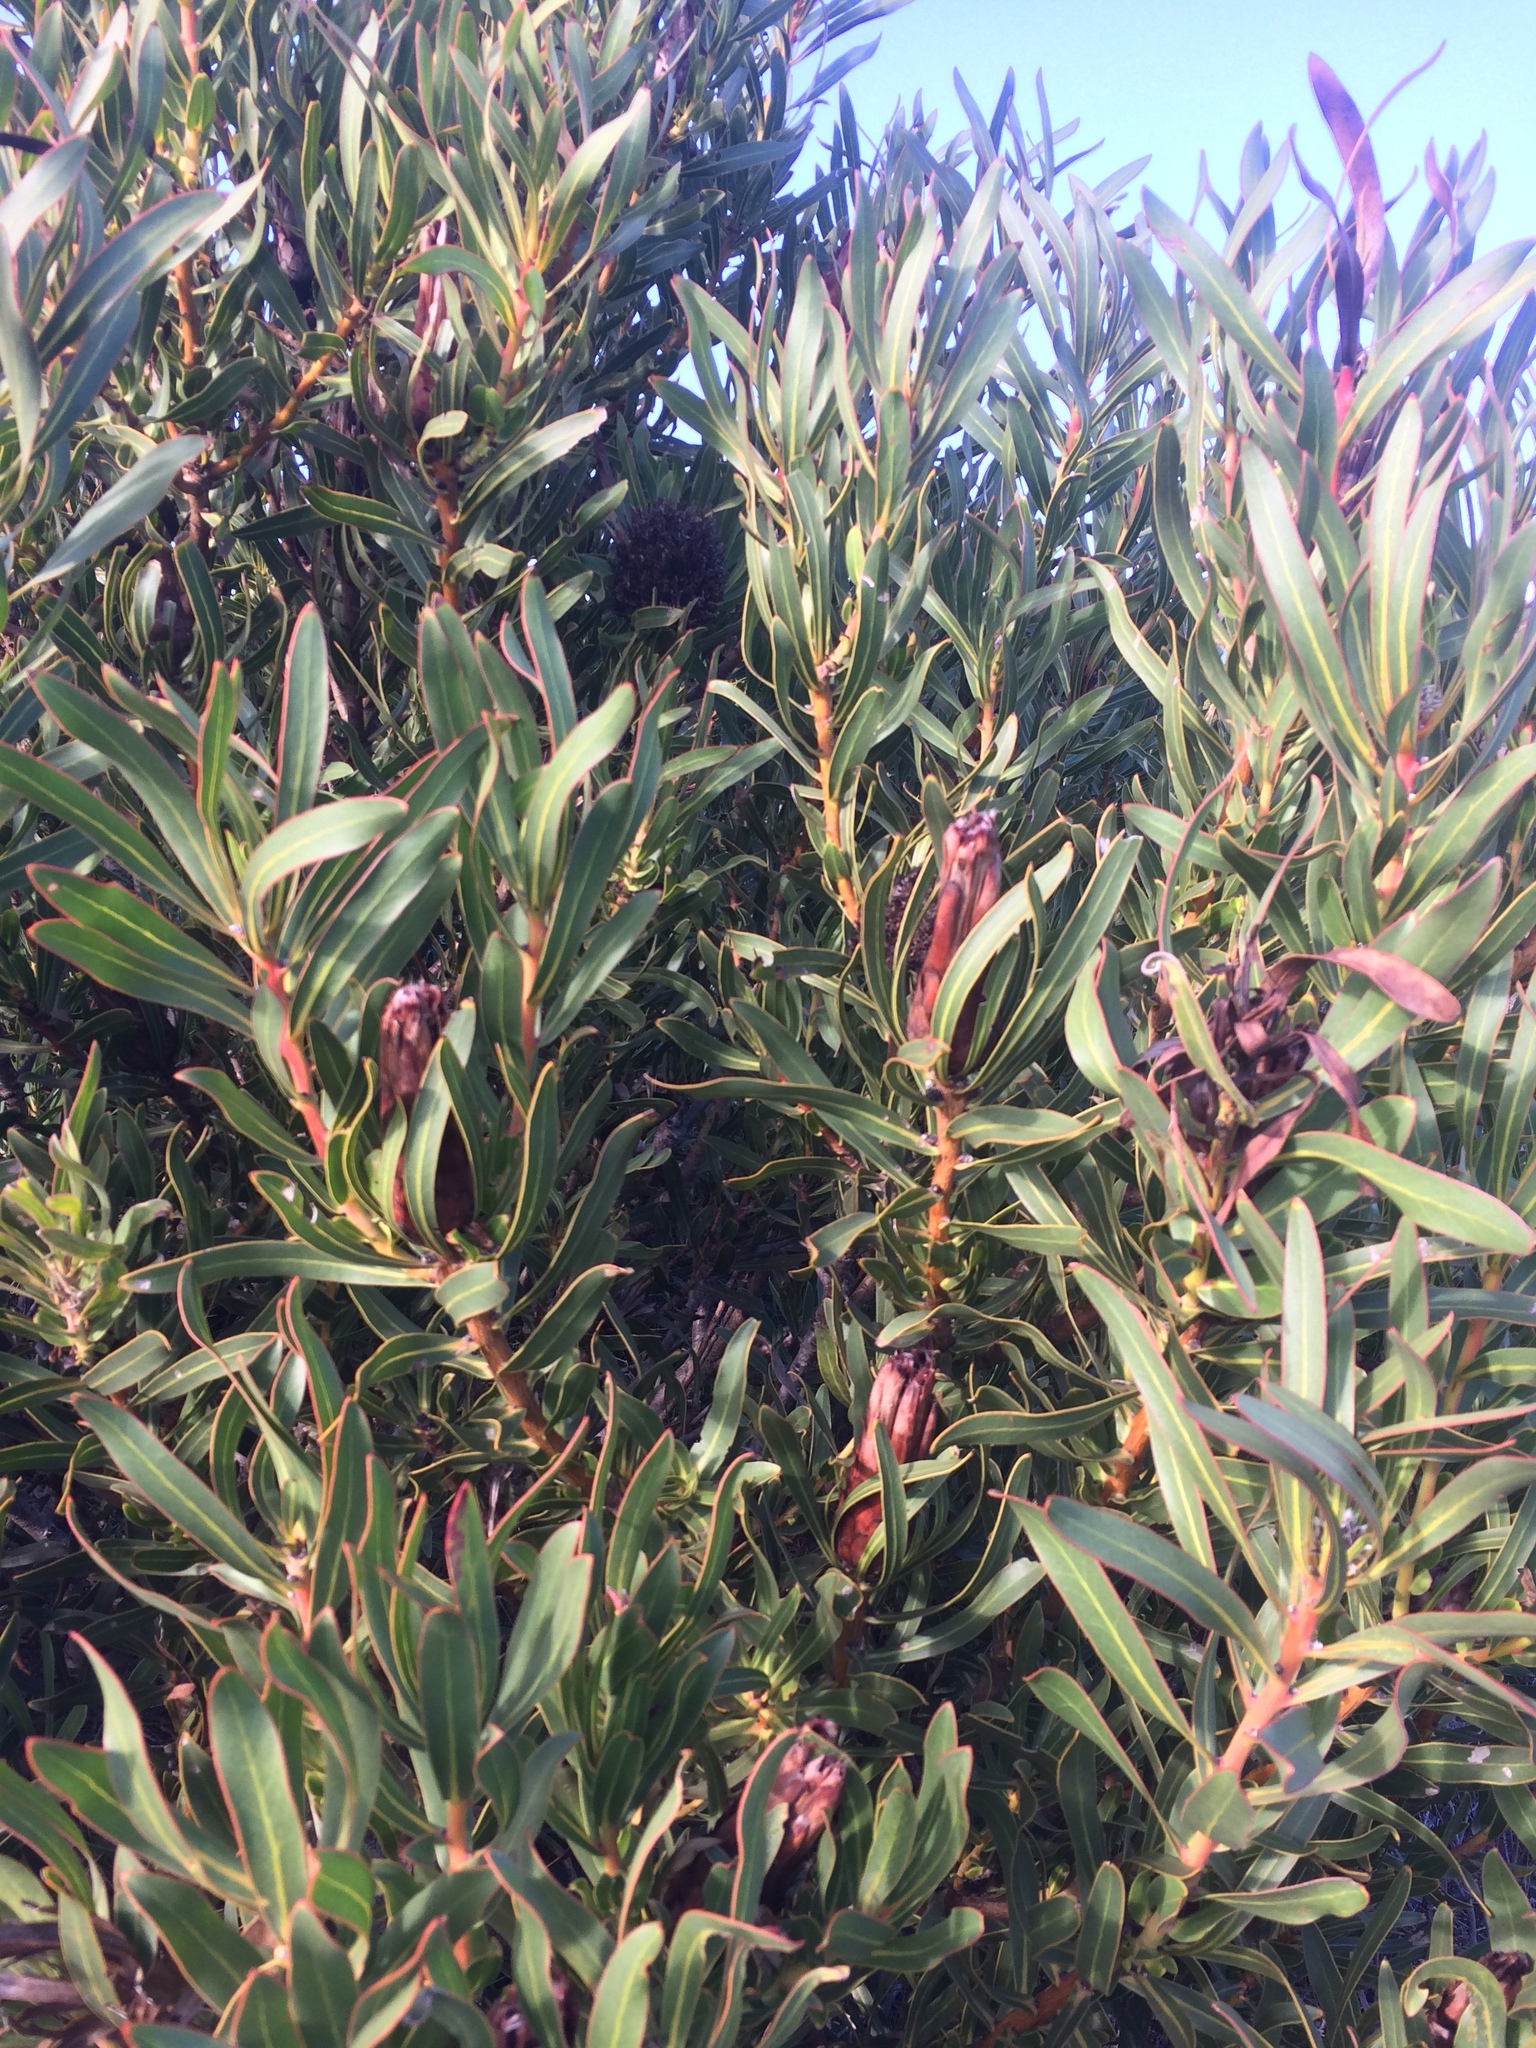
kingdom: Plantae
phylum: Tracheophyta
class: Magnoliopsida
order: Proteales
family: Proteaceae
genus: Protea
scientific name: Protea lepidocarpodendron
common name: Black-bearded protea
